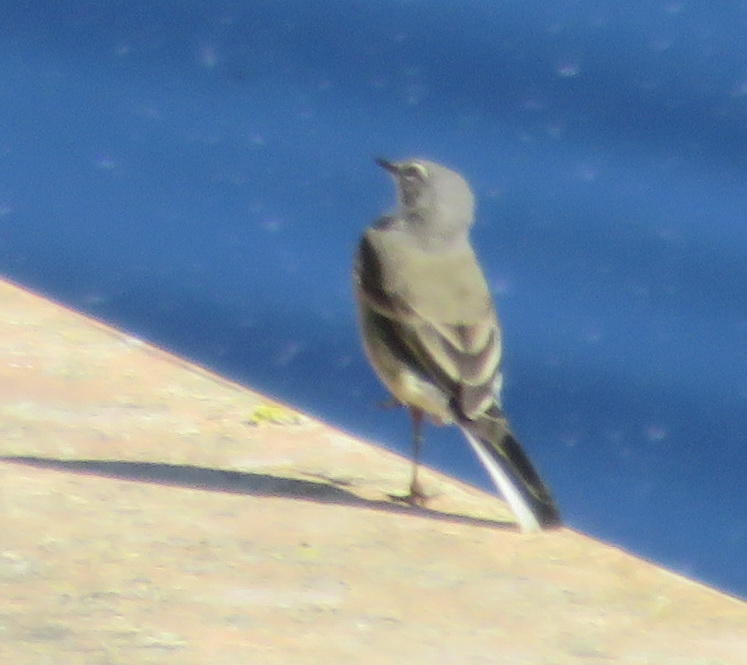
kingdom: Animalia
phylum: Chordata
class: Aves
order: Passeriformes
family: Motacillidae
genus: Motacilla
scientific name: Motacilla capensis
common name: Cape wagtail
